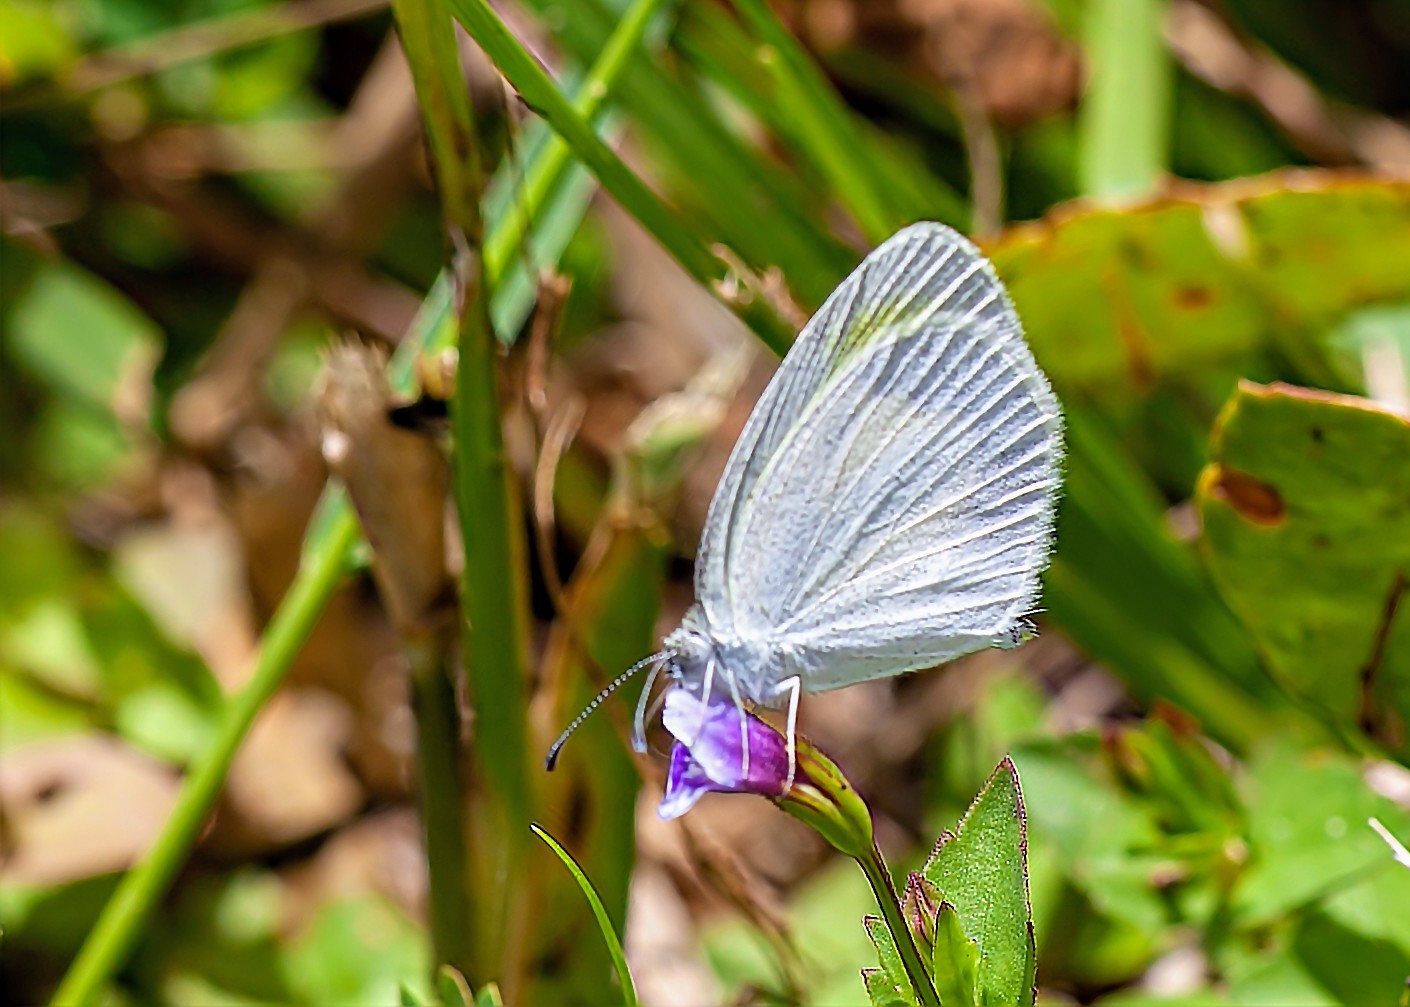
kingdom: Animalia
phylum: Arthropoda
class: Insecta
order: Lepidoptera
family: Pieridae
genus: Eurema
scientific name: Eurema daira
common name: Barred sulphur
